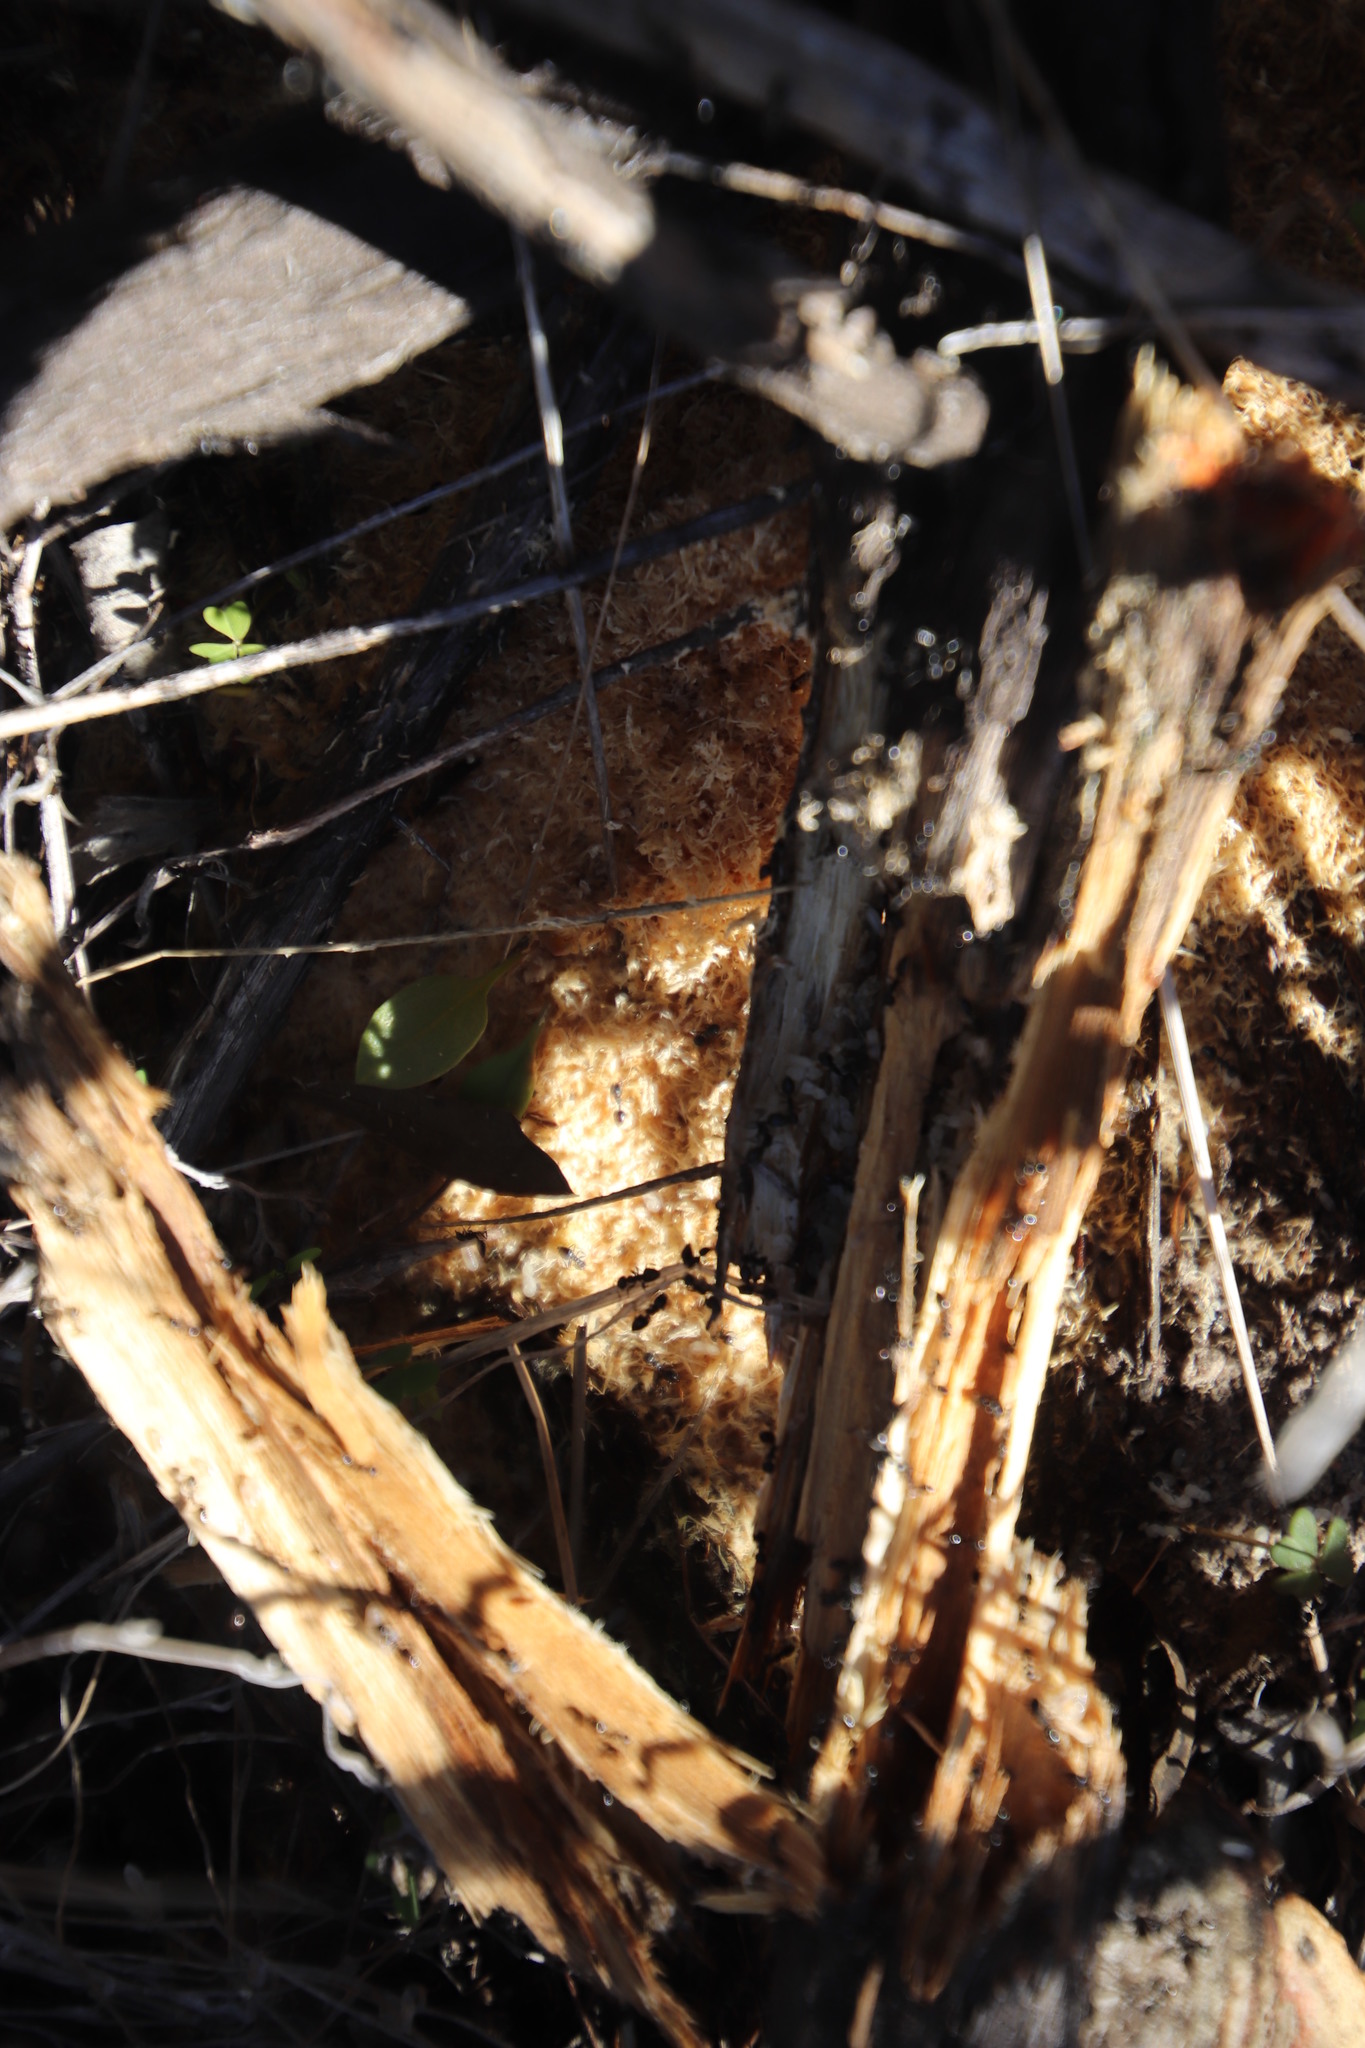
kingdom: Animalia
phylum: Arthropoda
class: Insecta
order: Hymenoptera
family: Formicidae
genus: Crematogaster
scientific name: Crematogaster peringueyi
